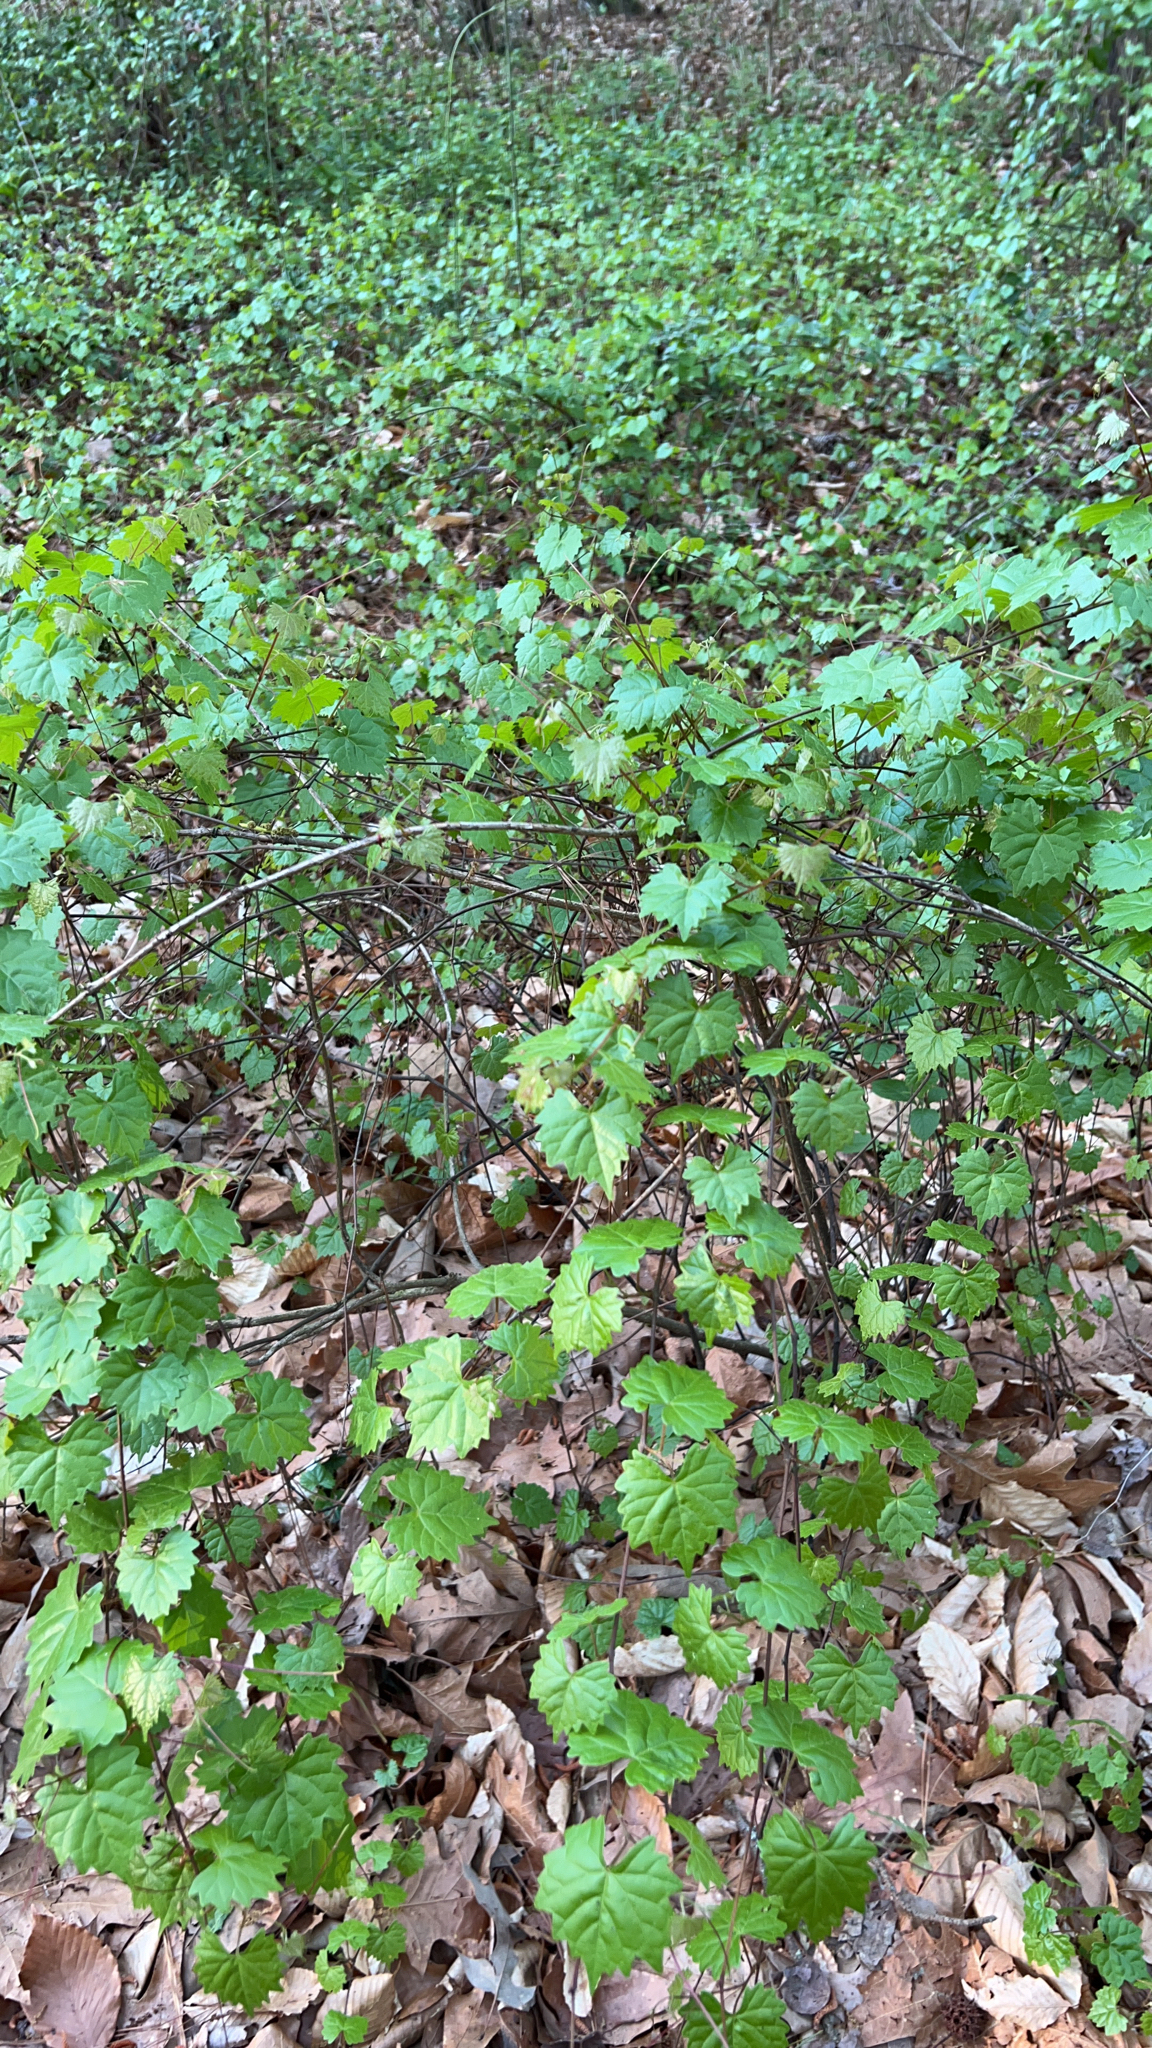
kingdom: Plantae
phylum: Tracheophyta
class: Magnoliopsida
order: Vitales
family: Vitaceae
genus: Vitis
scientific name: Vitis rotundifolia
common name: Muscadine grape
